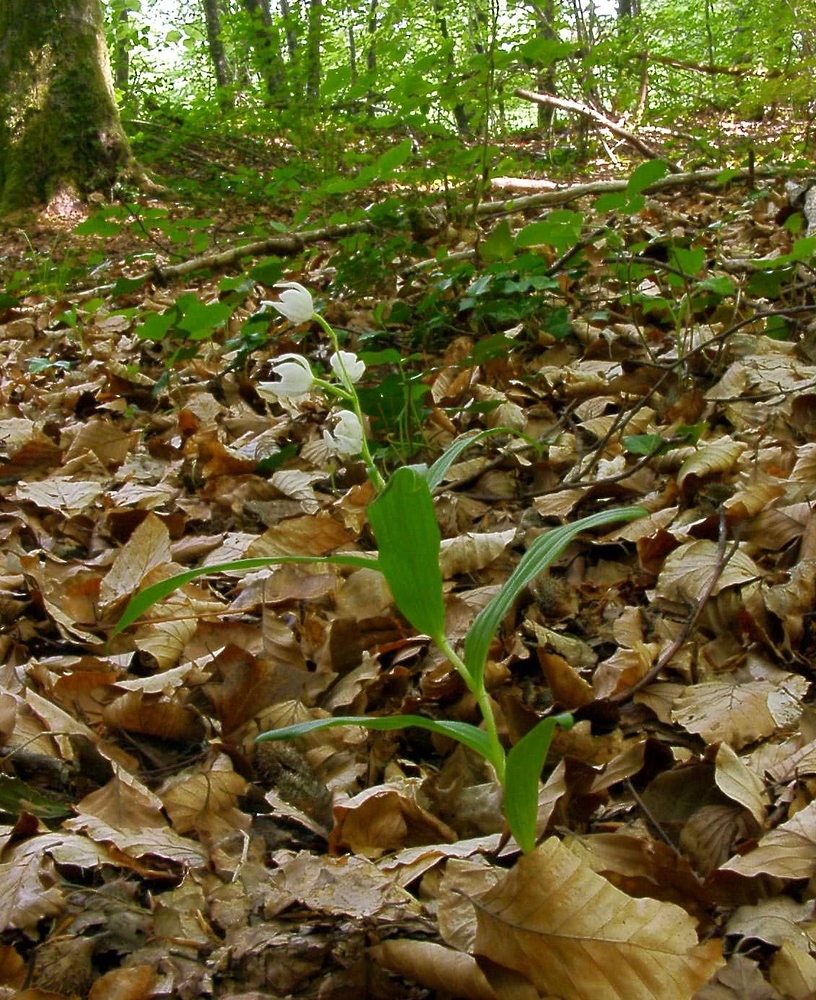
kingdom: Plantae
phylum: Tracheophyta
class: Liliopsida
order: Asparagales
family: Orchidaceae
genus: Cephalanthera
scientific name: Cephalanthera longifolia
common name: Narrow-leaved helleborine
